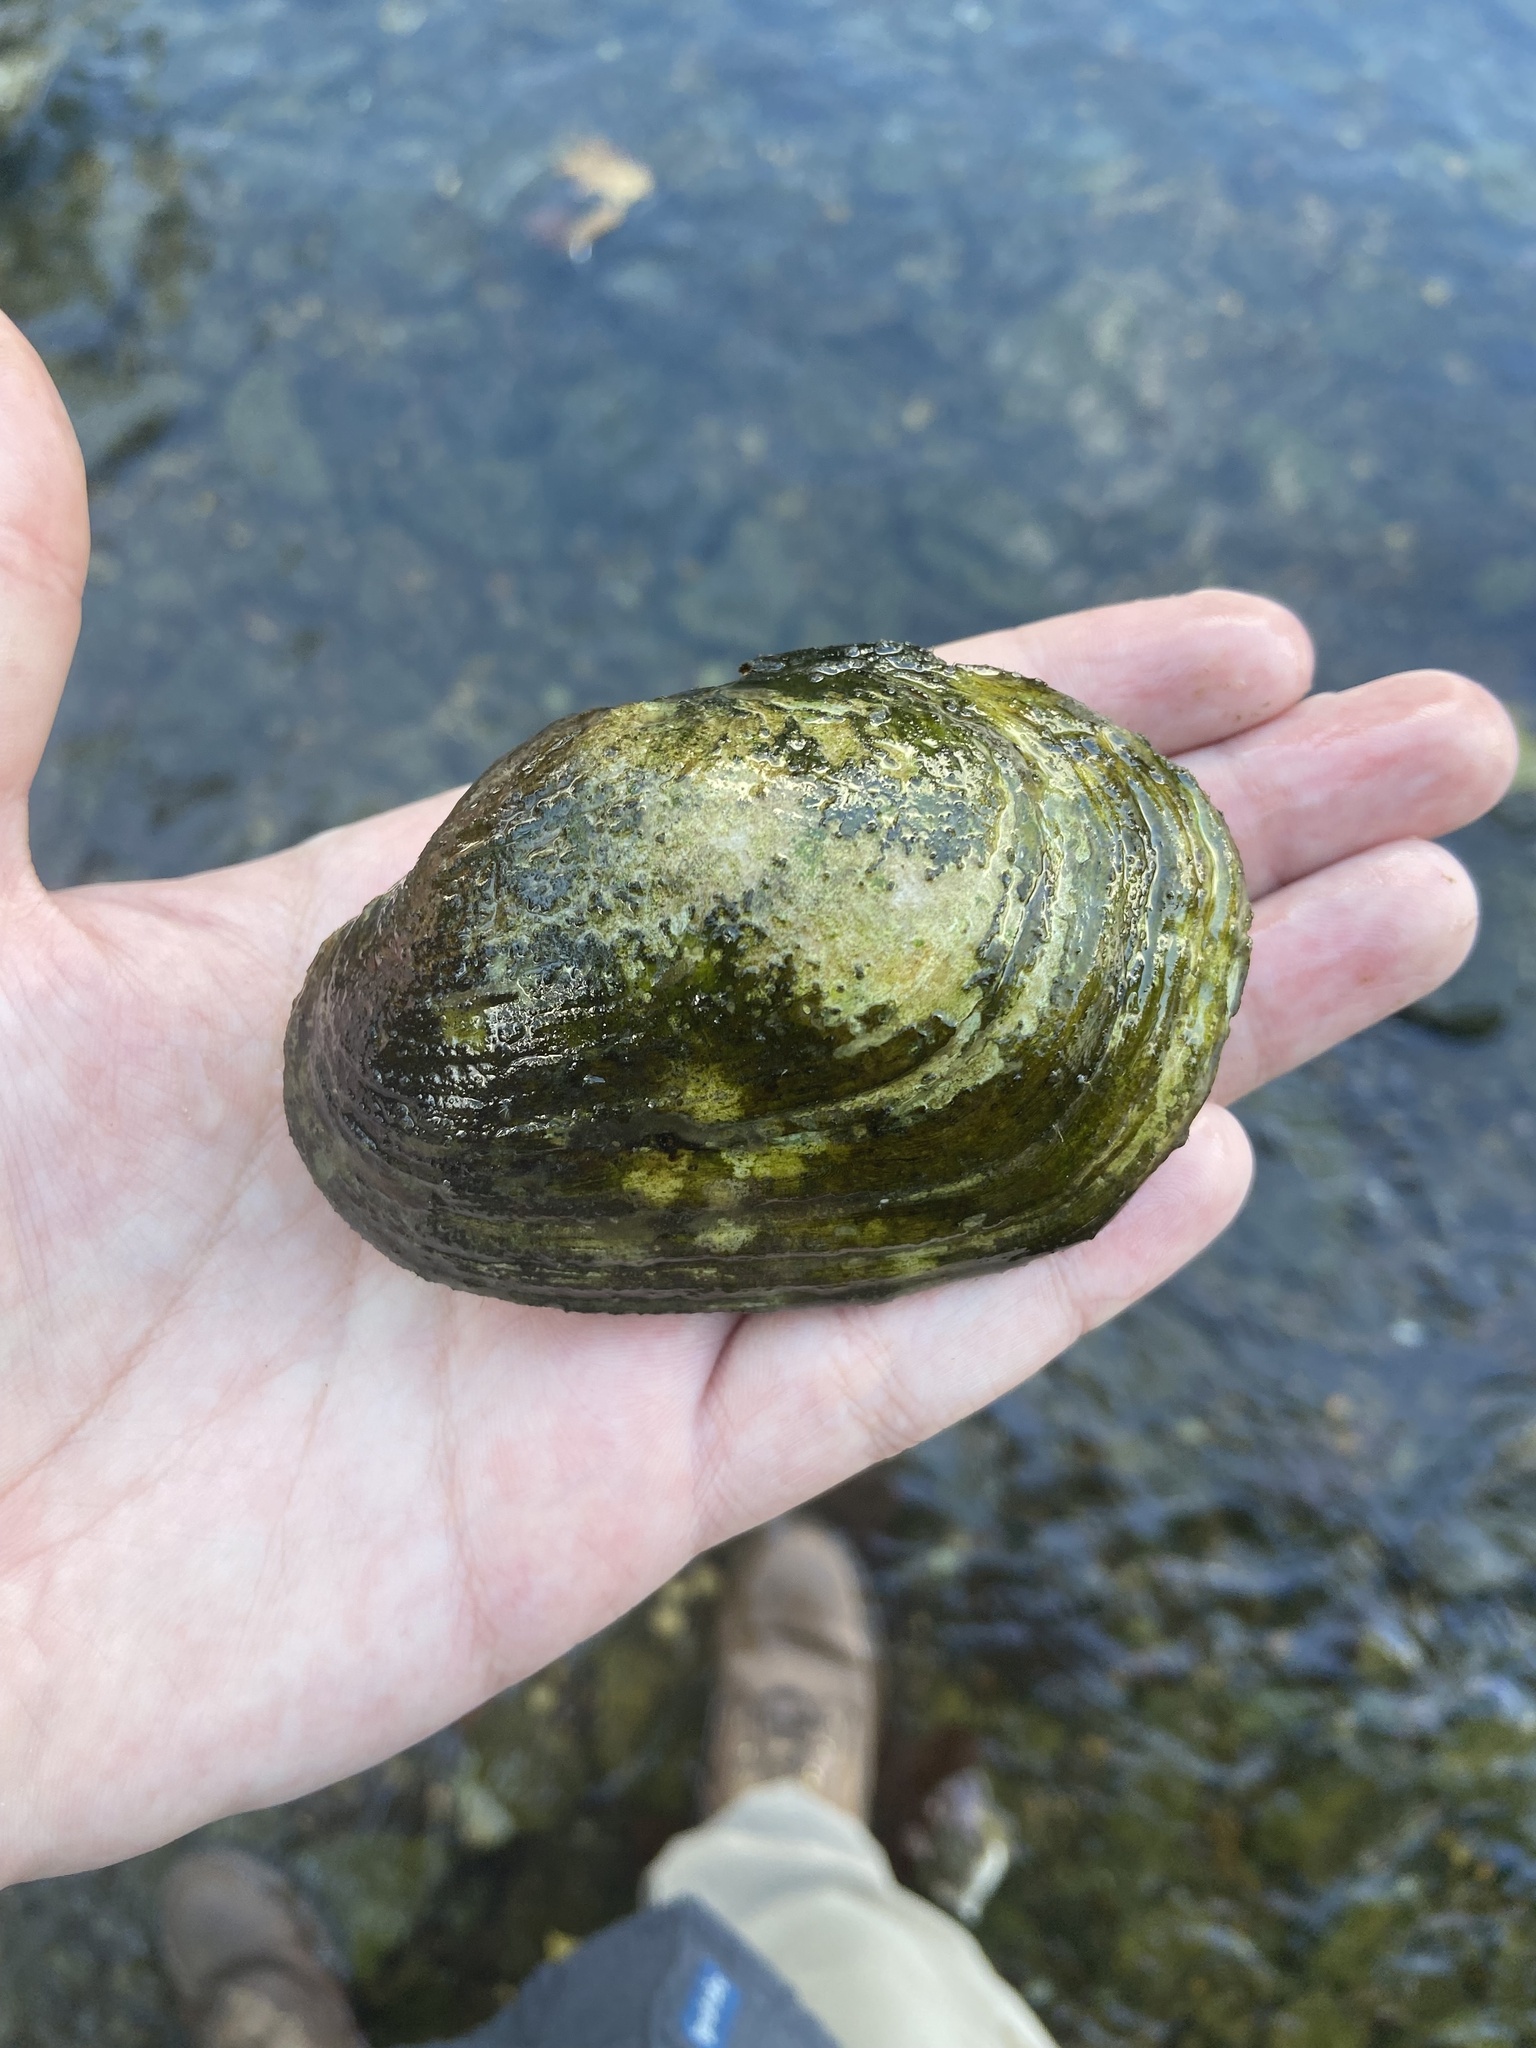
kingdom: Animalia
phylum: Mollusca
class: Bivalvia
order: Unionida
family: Unionidae
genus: Lampsilis
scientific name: Lampsilis cardium
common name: Plain pocketbook
